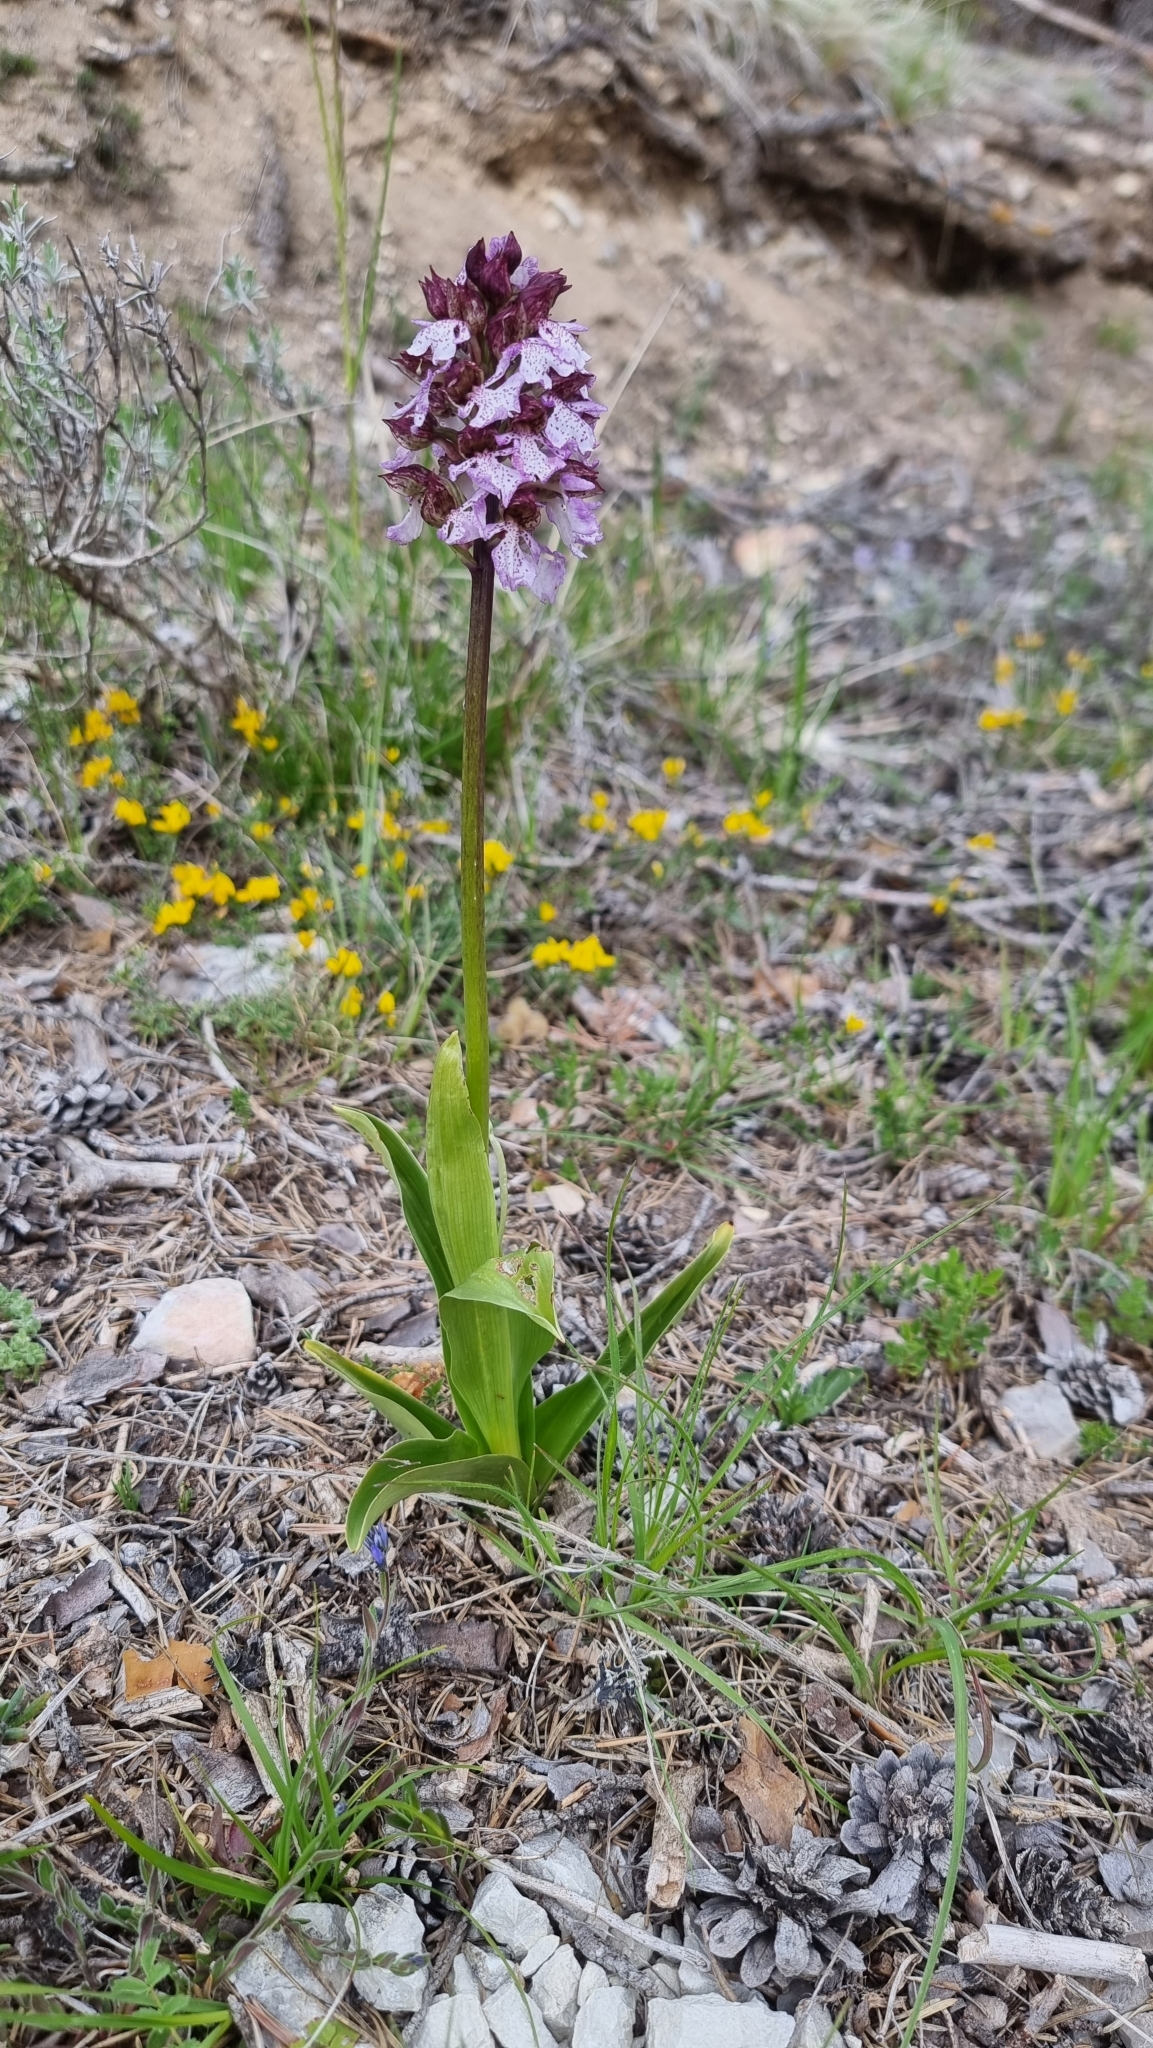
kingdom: Plantae
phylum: Tracheophyta
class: Liliopsida
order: Asparagales
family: Orchidaceae
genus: Orchis
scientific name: Orchis purpurea
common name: Lady orchid
